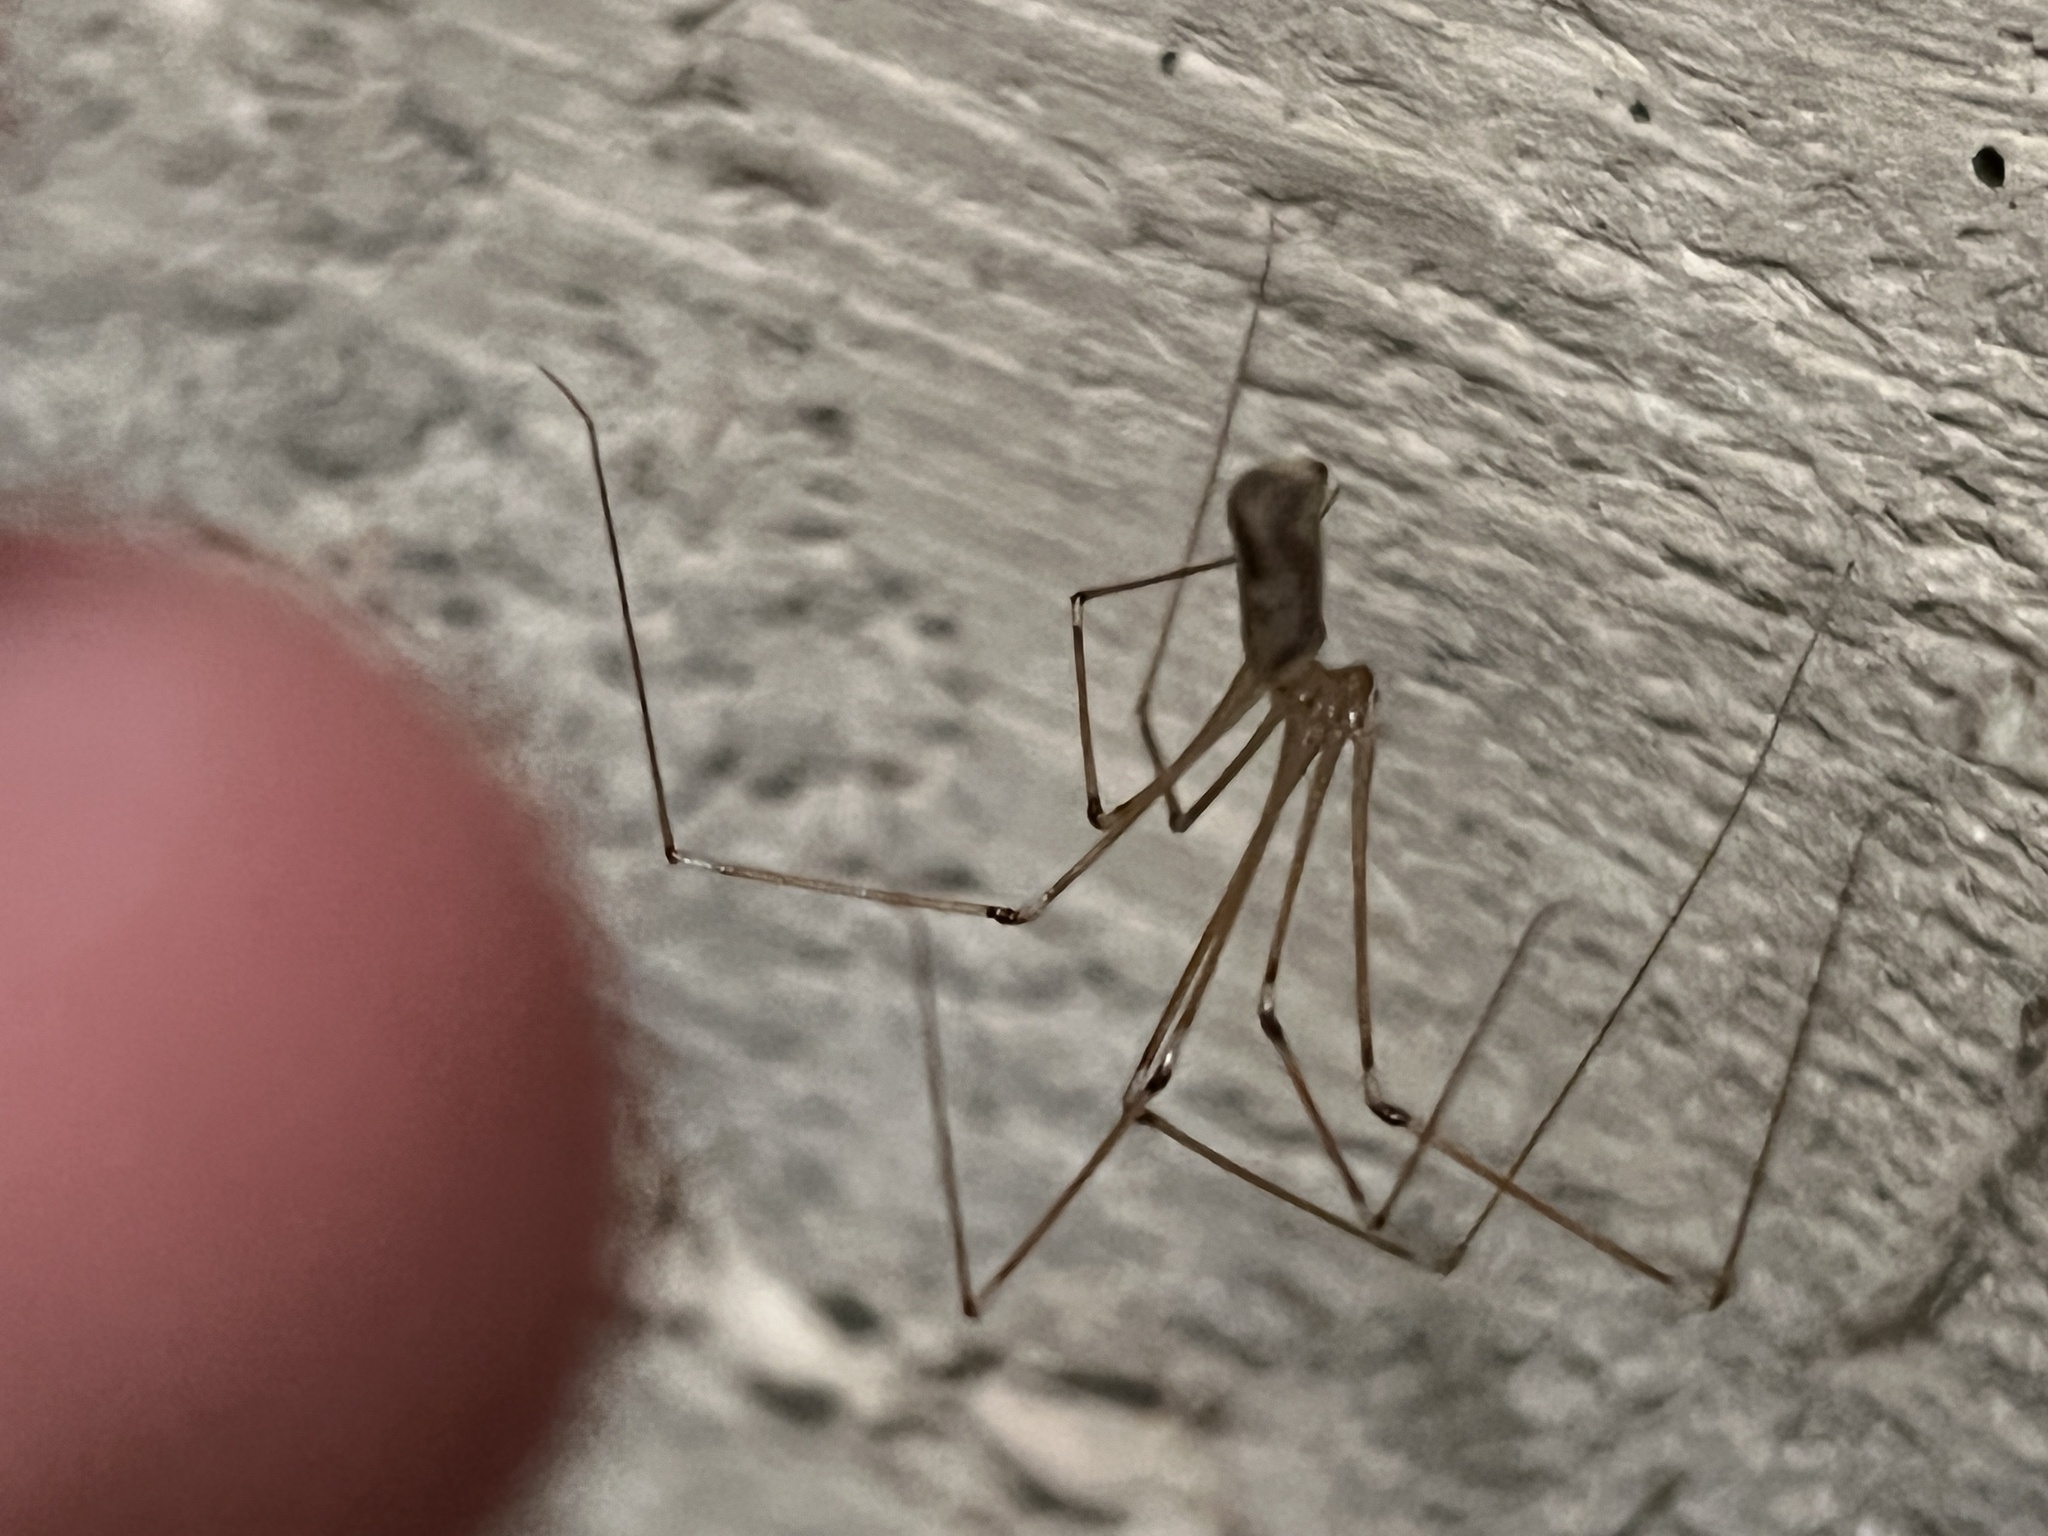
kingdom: Animalia
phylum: Arthropoda
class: Arachnida
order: Araneae
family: Pholcidae
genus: Pholcus
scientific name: Pholcus phalangioides
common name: Longbodied cellar spider
